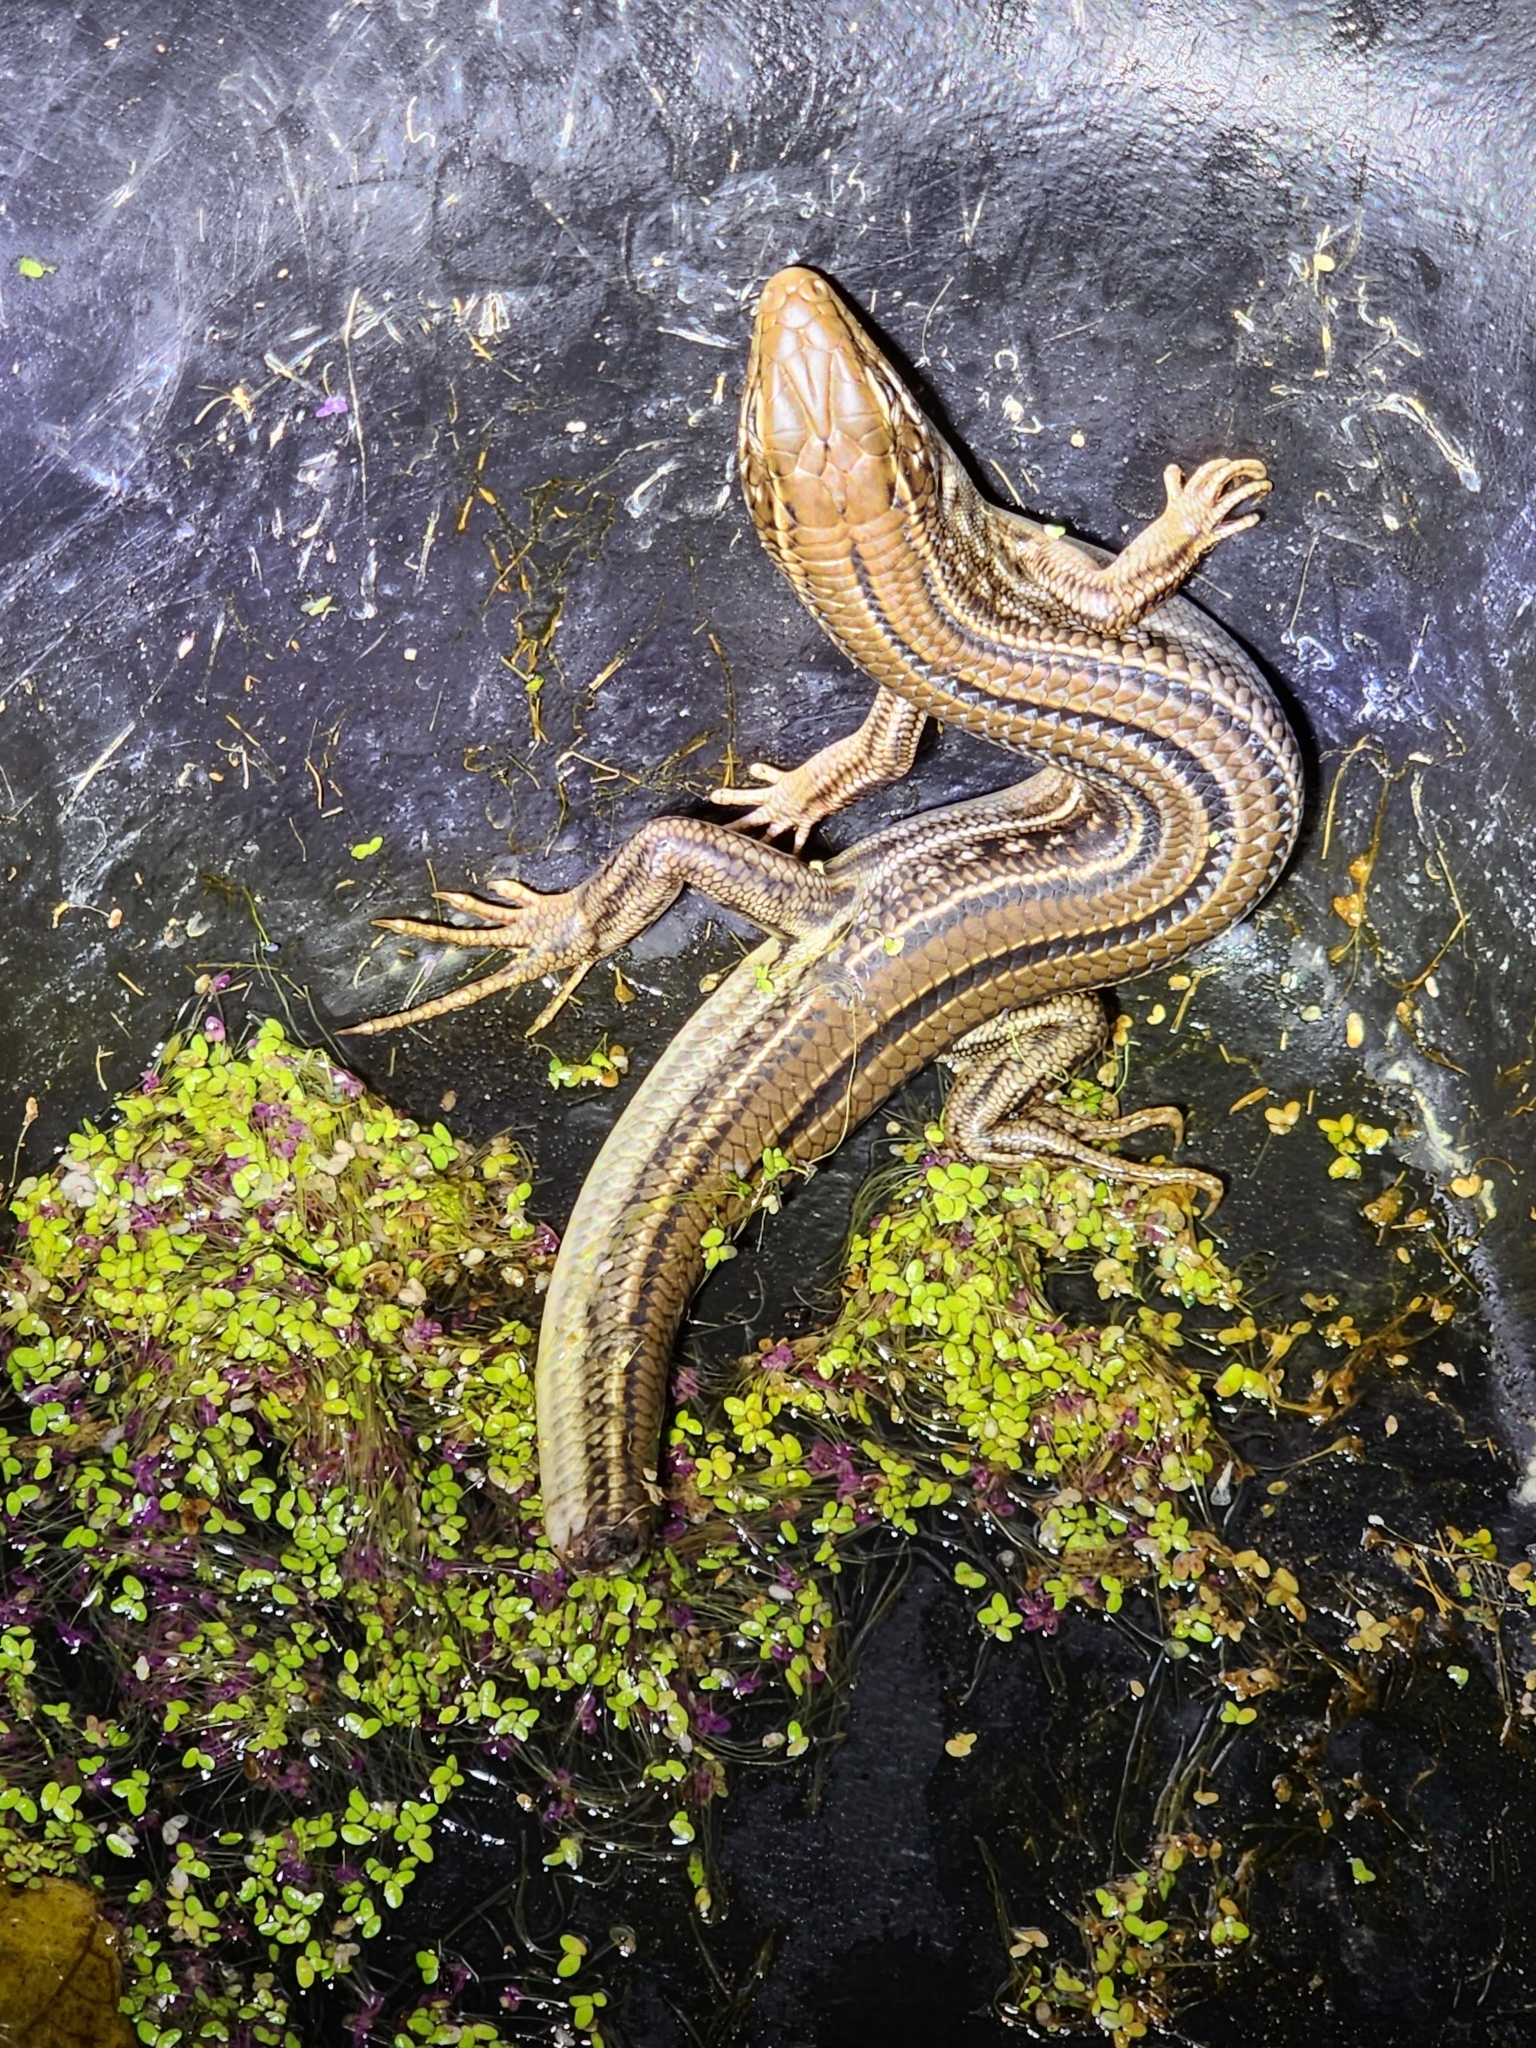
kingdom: Animalia
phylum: Chordata
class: Squamata
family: Scincidae
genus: Ctenotus
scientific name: Ctenotus robustus
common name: Robust ctenotus
